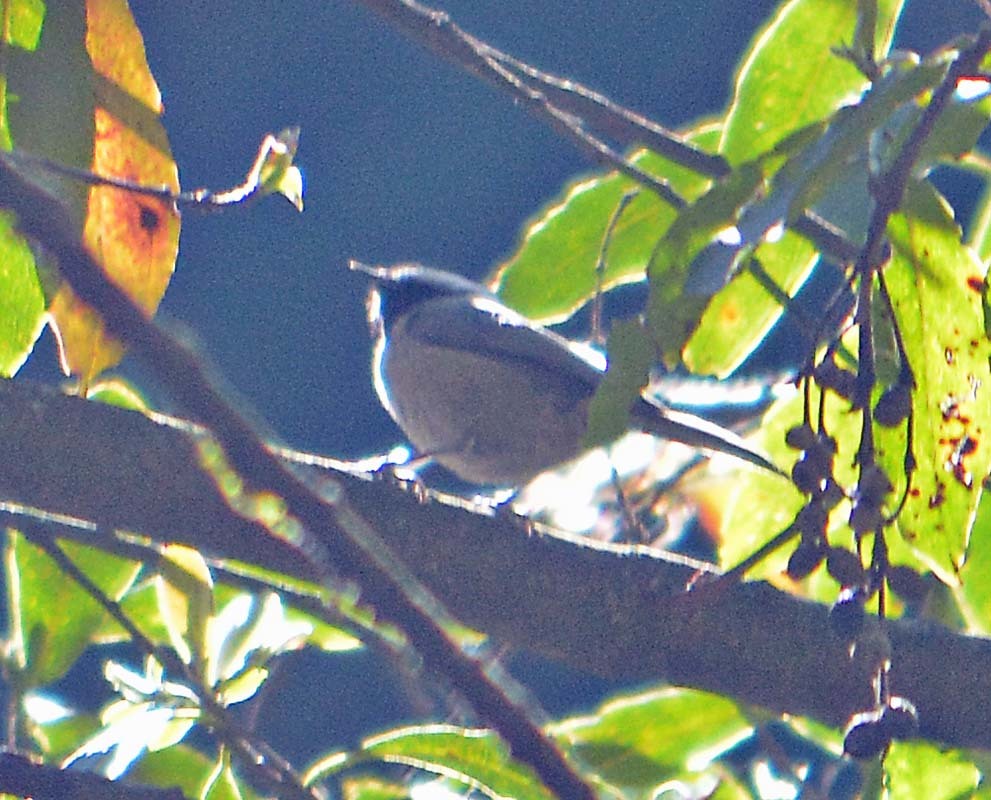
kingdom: Animalia
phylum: Chordata
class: Aves
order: Passeriformes
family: Aegithalidae
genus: Psaltriparus
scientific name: Psaltriparus minimus
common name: American bushtit
